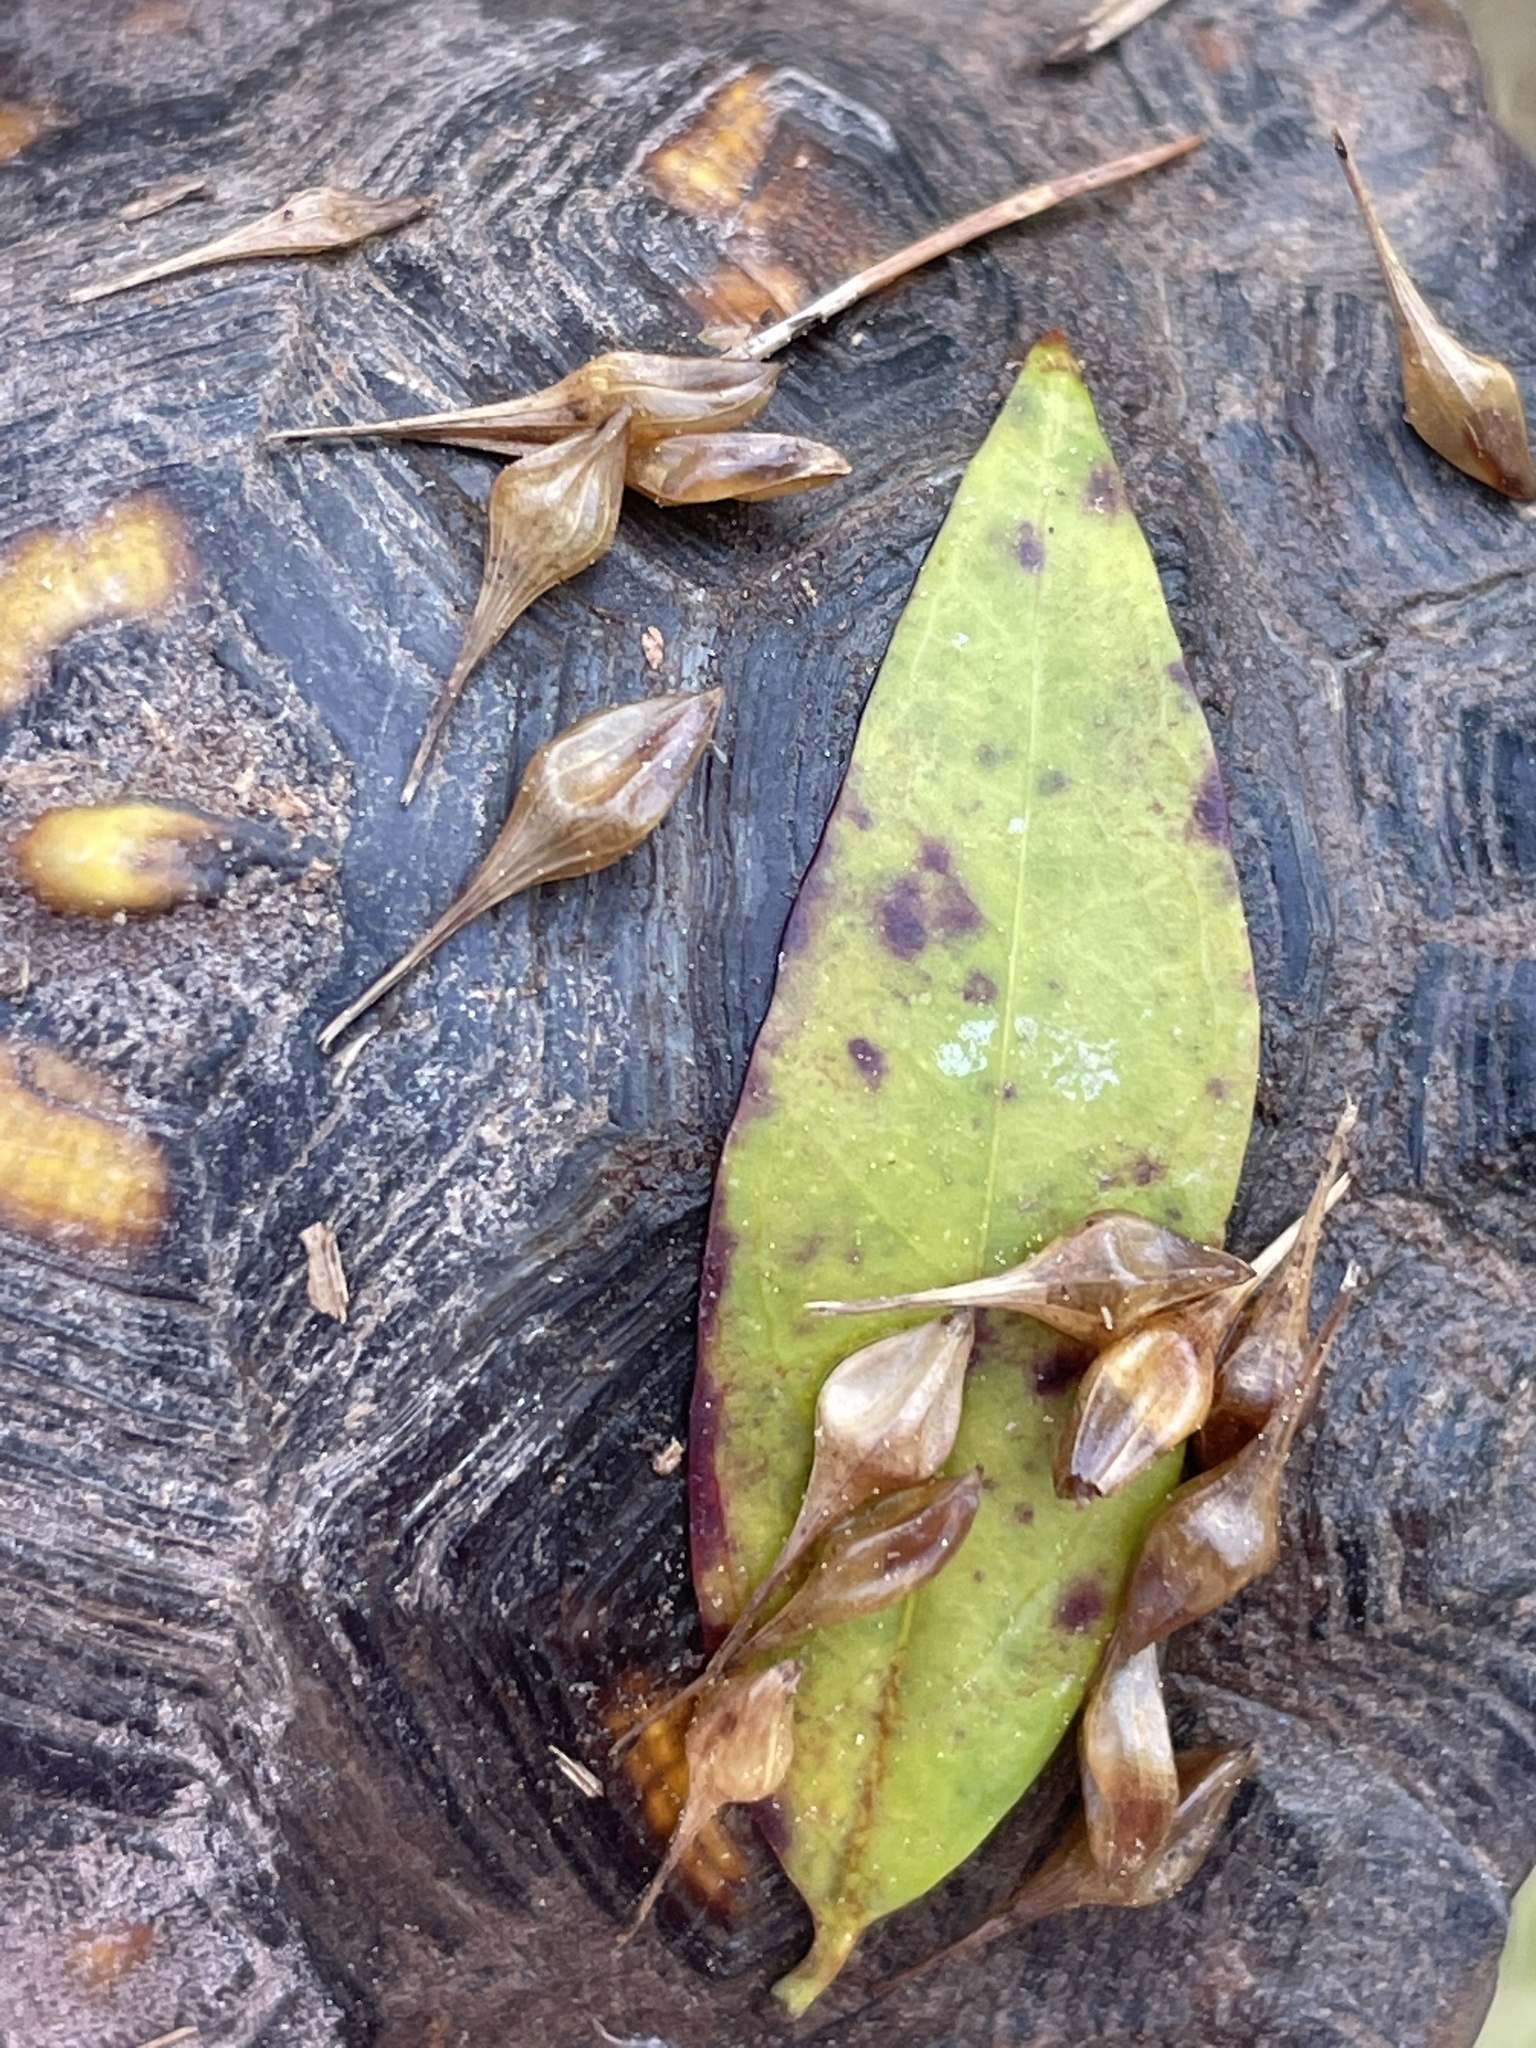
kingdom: Animalia
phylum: Chordata
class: Testudines
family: Emydidae
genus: Terrapene
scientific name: Terrapene carolina
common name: Common box turtle
